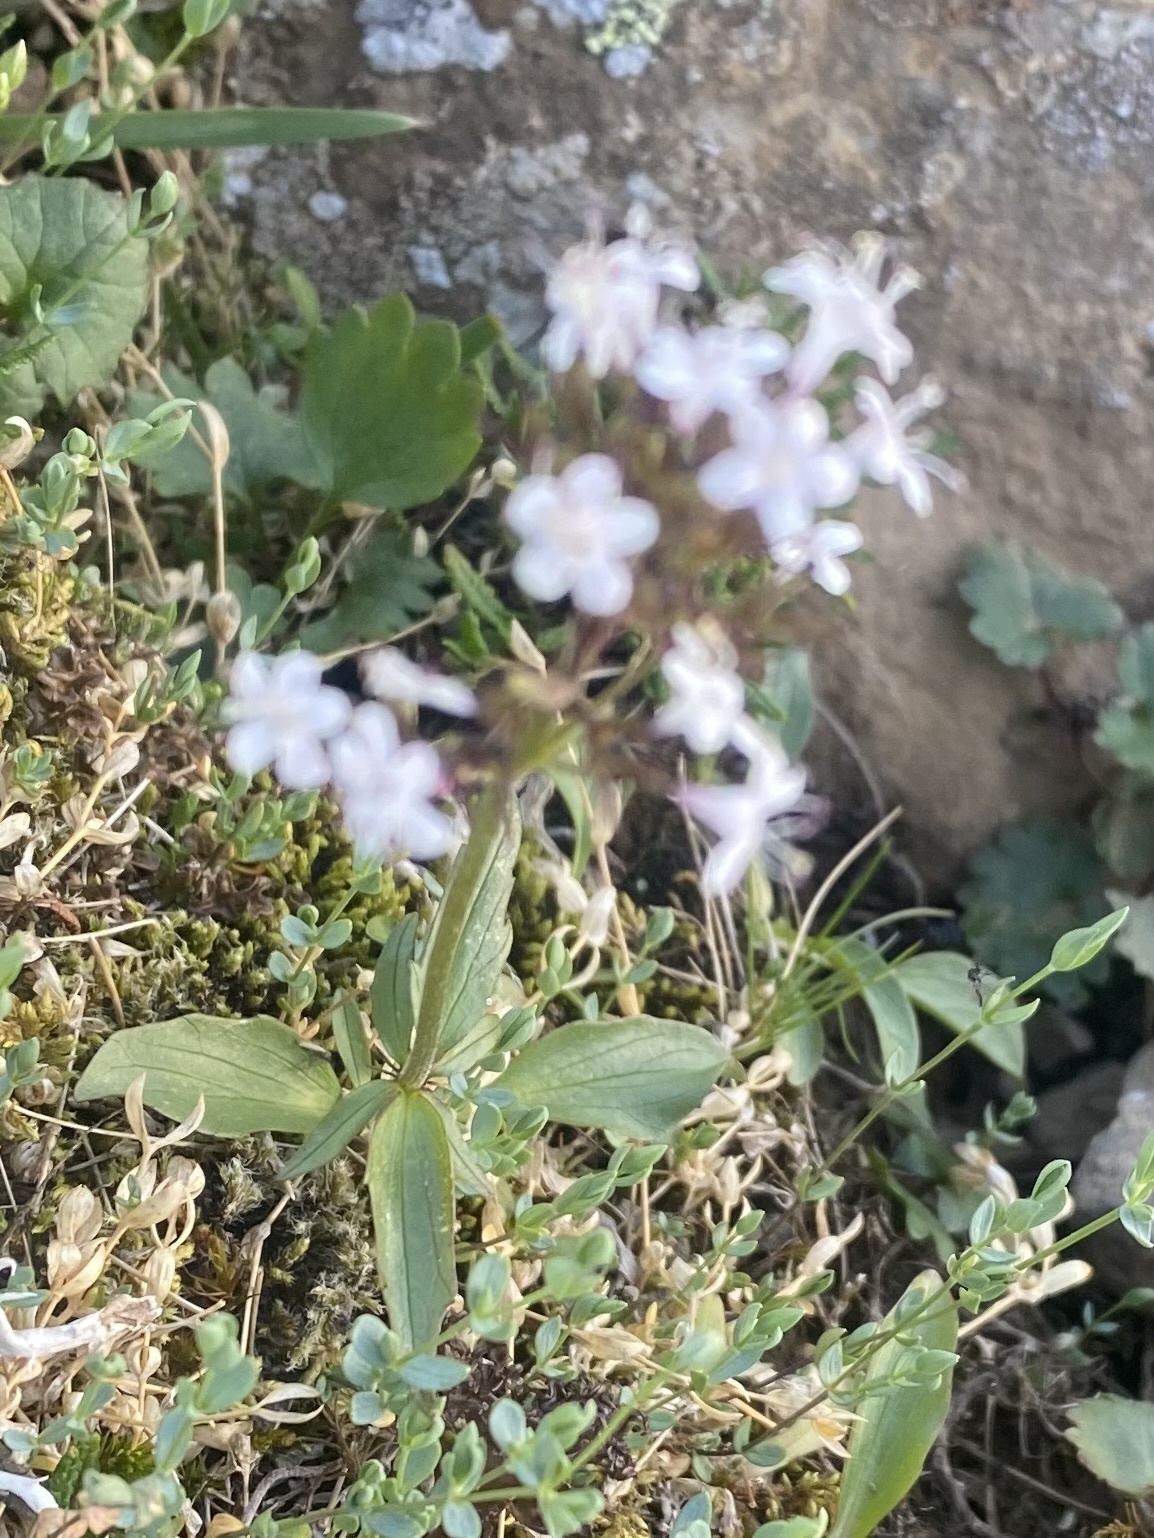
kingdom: Plantae
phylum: Tracheophyta
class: Magnoliopsida
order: Dipsacales
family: Caprifoliaceae
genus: Valeriana
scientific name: Valeriana capitata
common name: Capitate valerian
